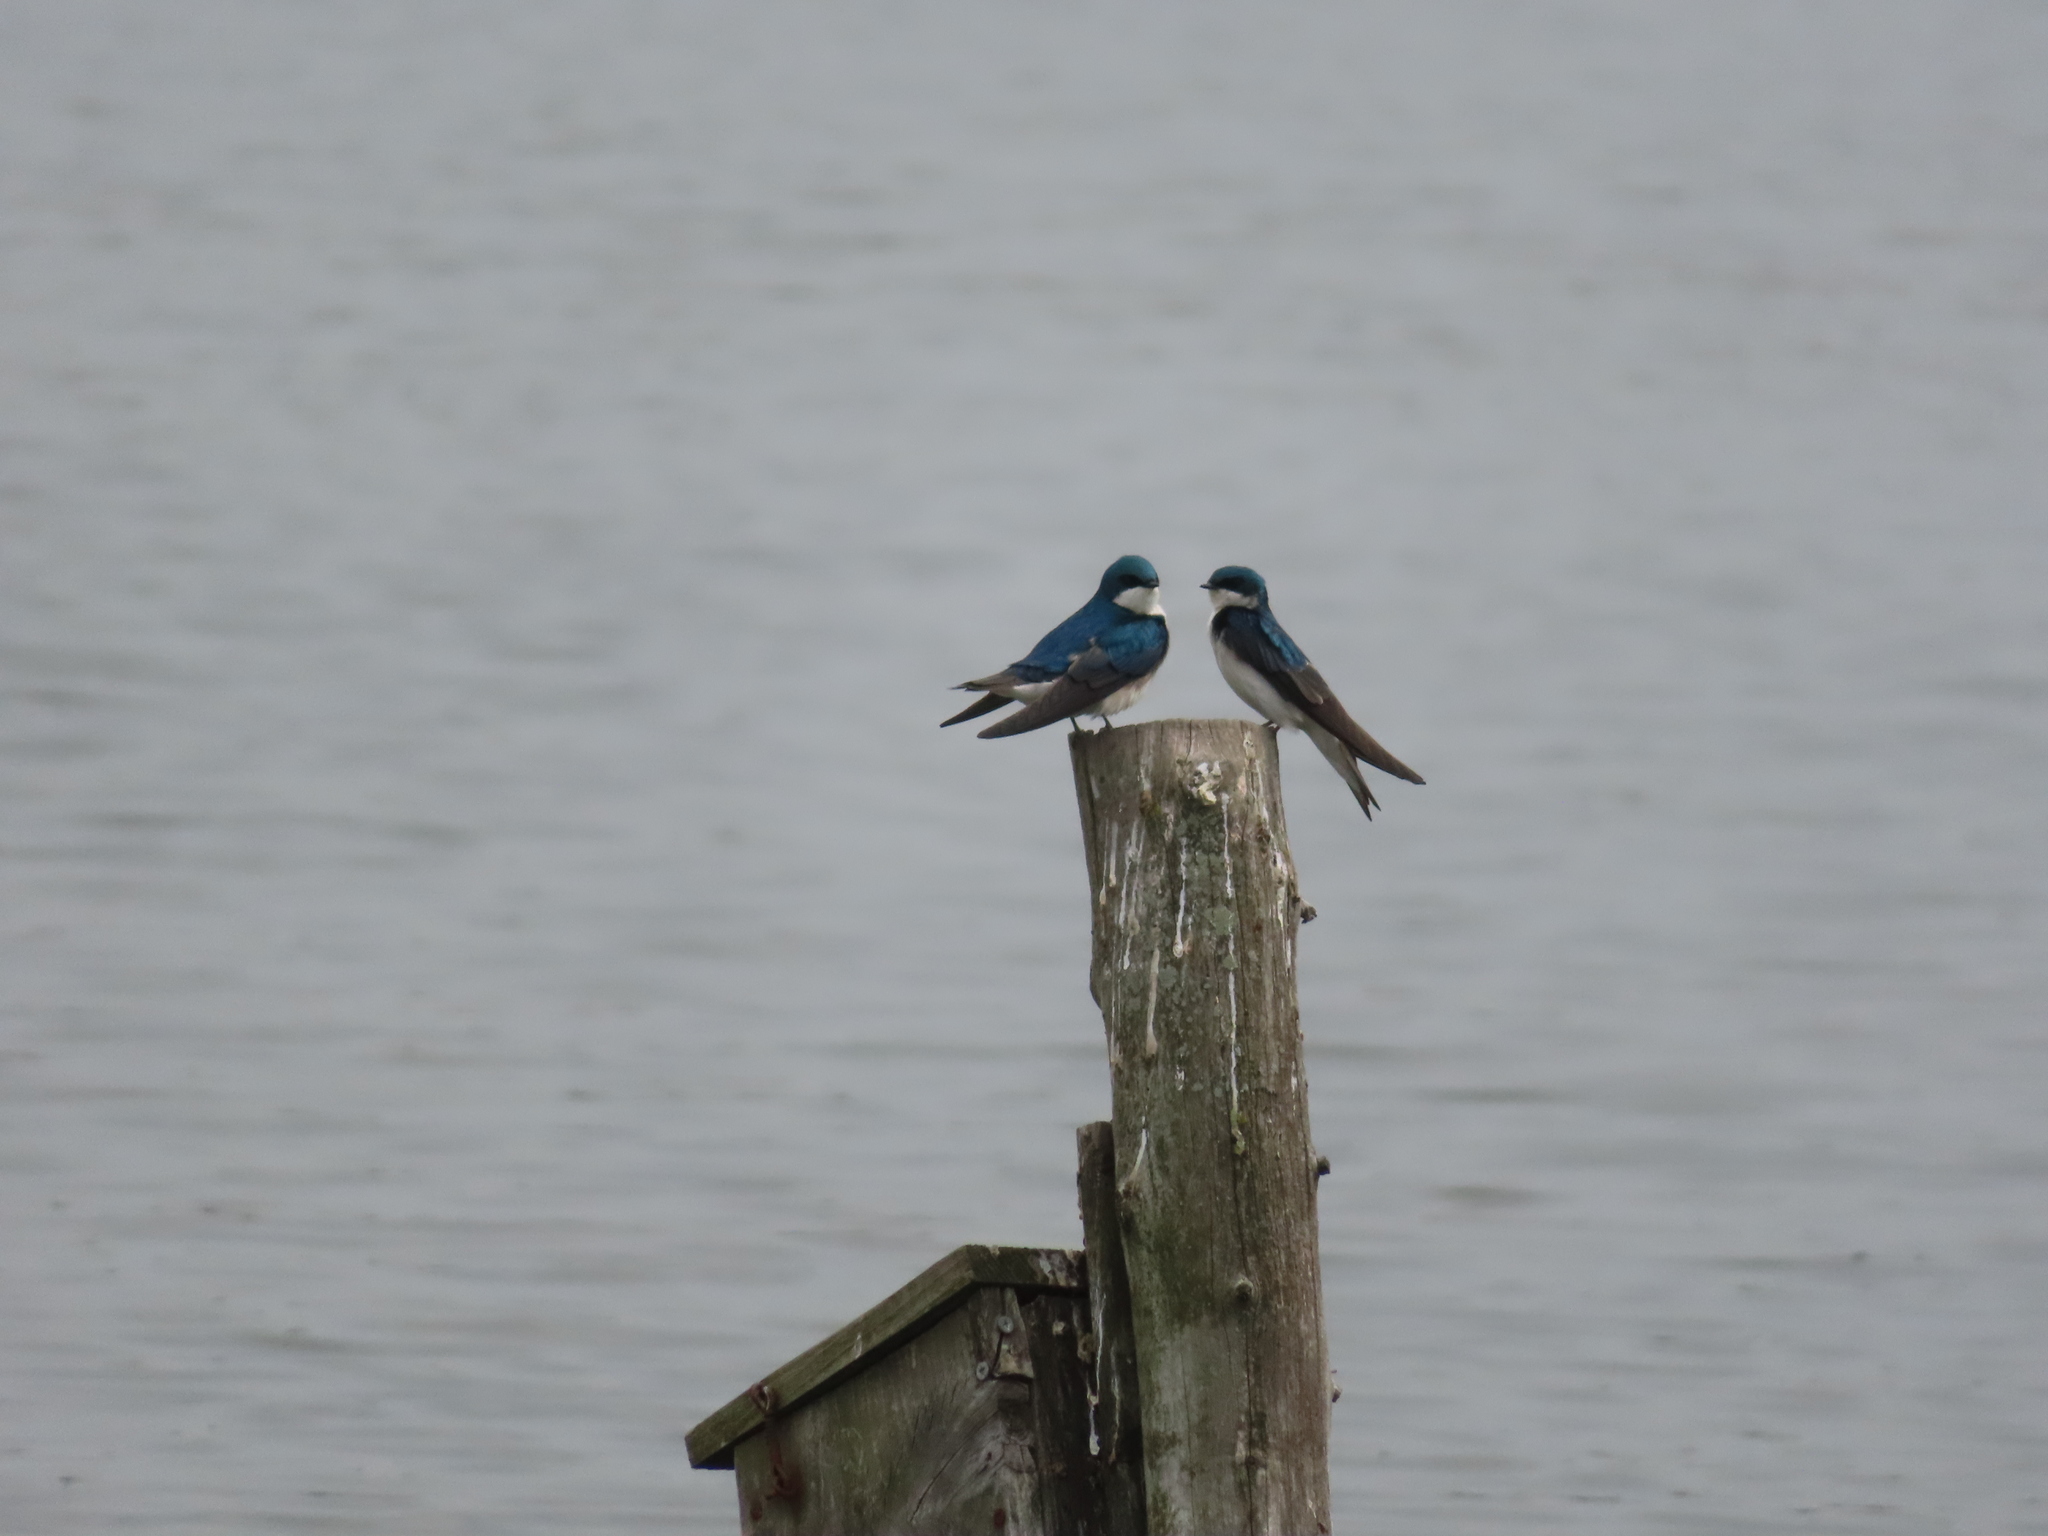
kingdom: Animalia
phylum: Chordata
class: Aves
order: Passeriformes
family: Hirundinidae
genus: Tachycineta
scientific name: Tachycineta bicolor
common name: Tree swallow
